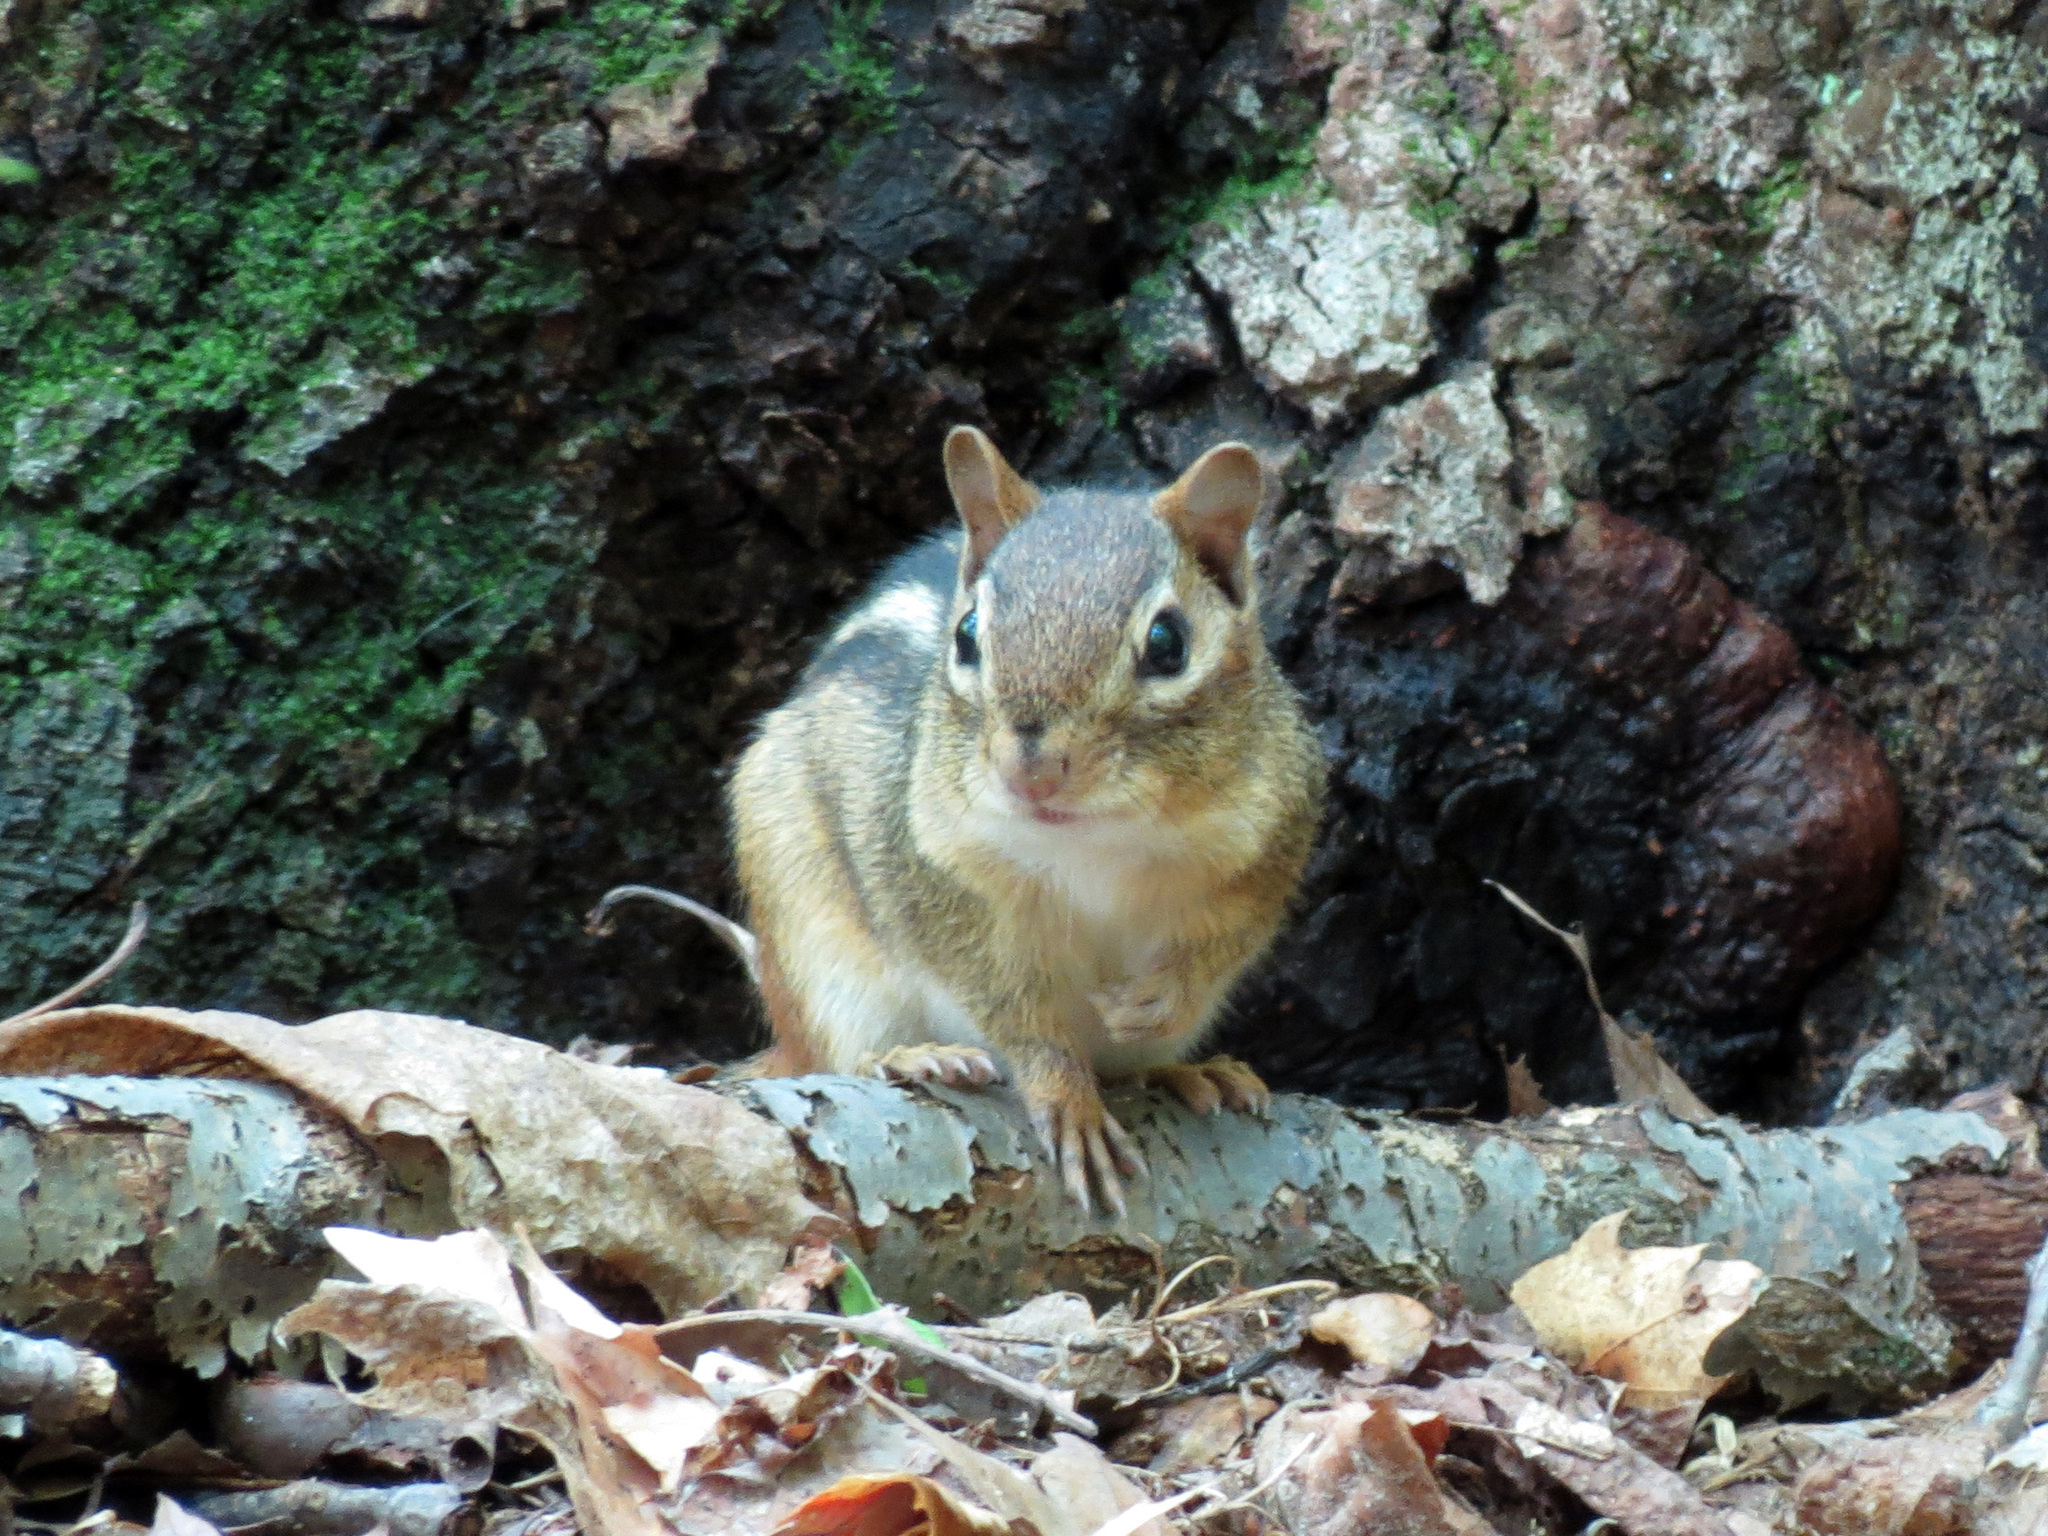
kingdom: Animalia
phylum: Chordata
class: Mammalia
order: Rodentia
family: Sciuridae
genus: Tamias
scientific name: Tamias striatus
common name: Eastern chipmunk
